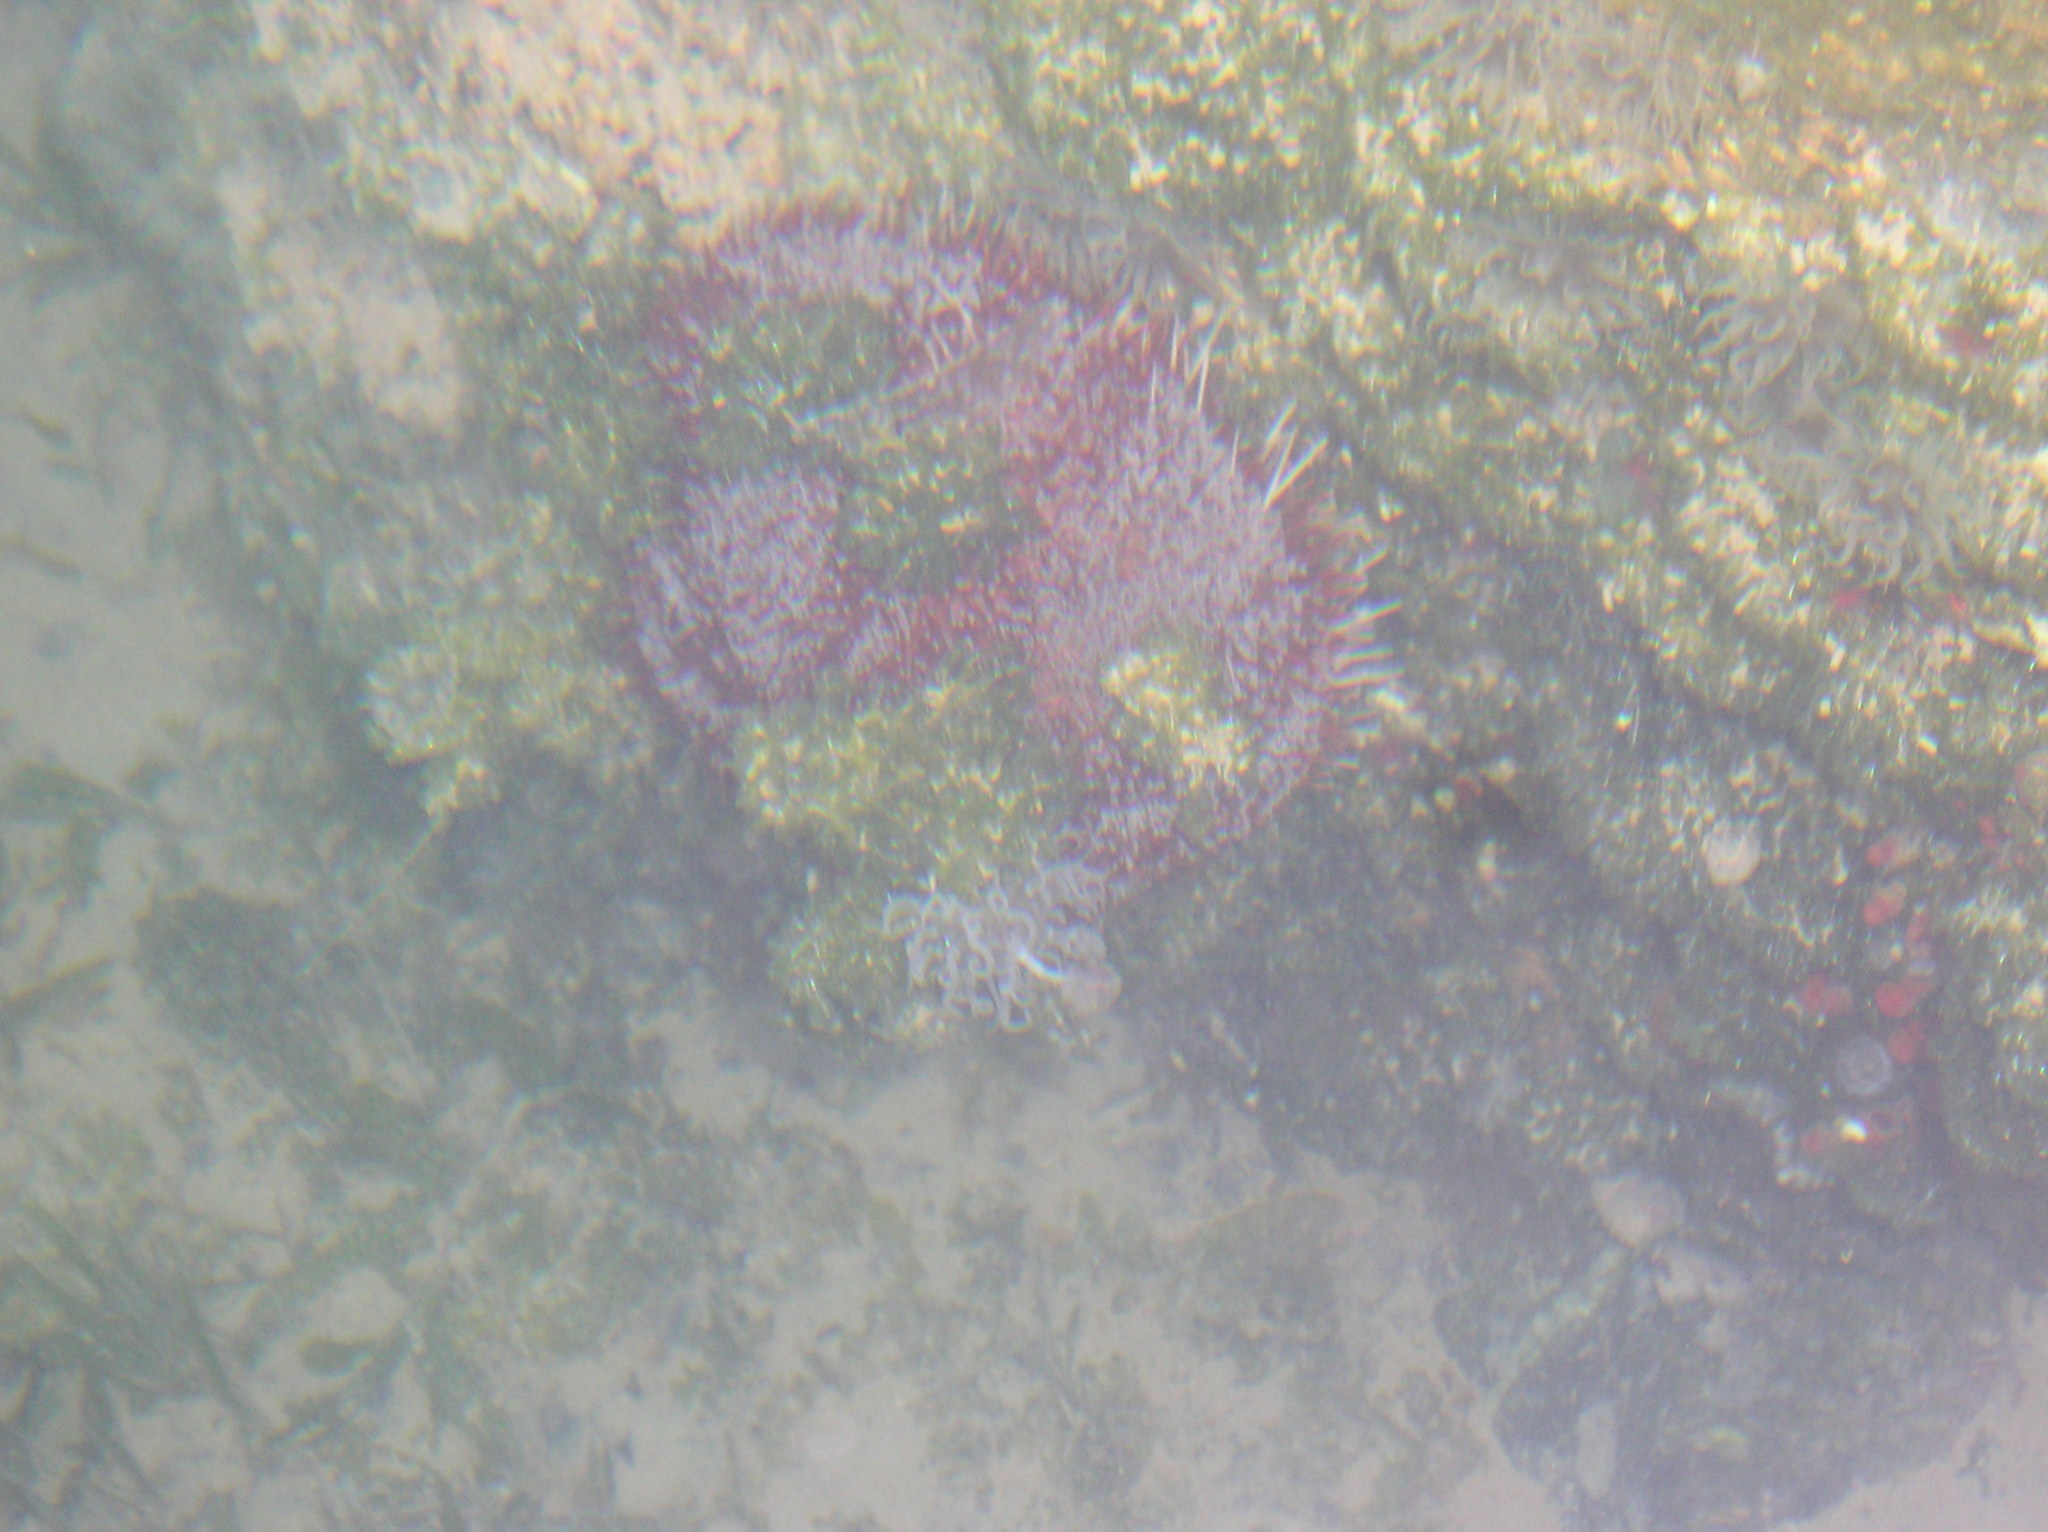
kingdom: Animalia
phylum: Echinodermata
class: Echinoidea
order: Echinothurioida
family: Echinothuriidae
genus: Asthenosoma
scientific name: Asthenosoma marisrubri
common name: Red sea fire urchin
